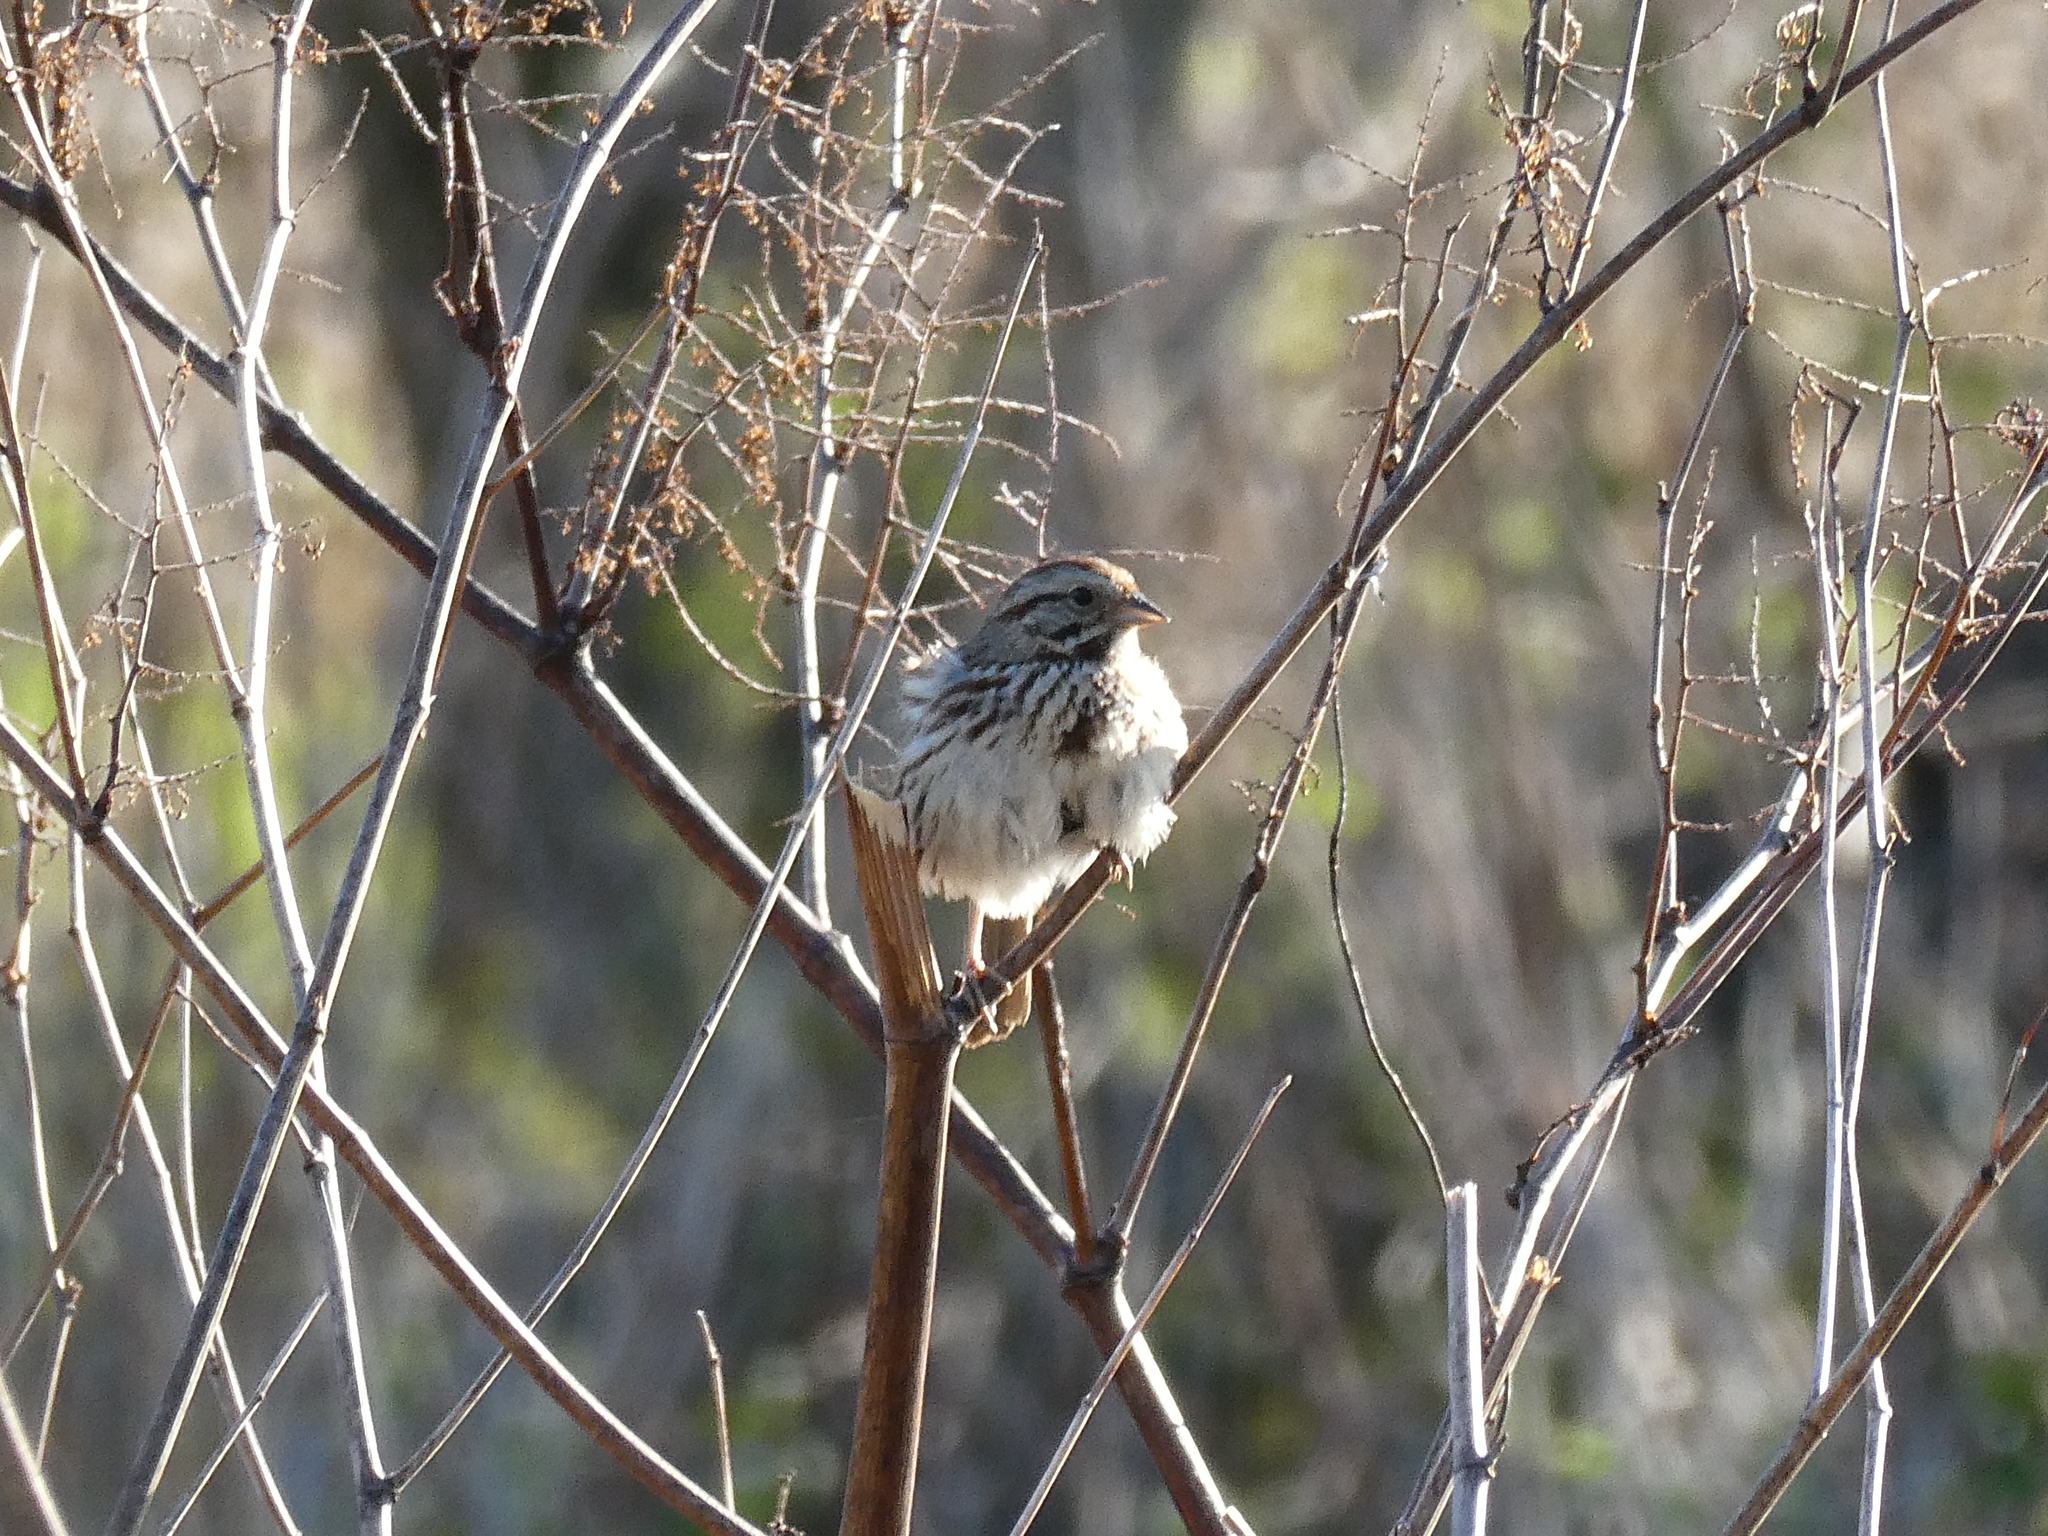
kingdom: Animalia
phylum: Chordata
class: Aves
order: Passeriformes
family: Passerellidae
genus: Melospiza
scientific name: Melospiza melodia
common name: Song sparrow
